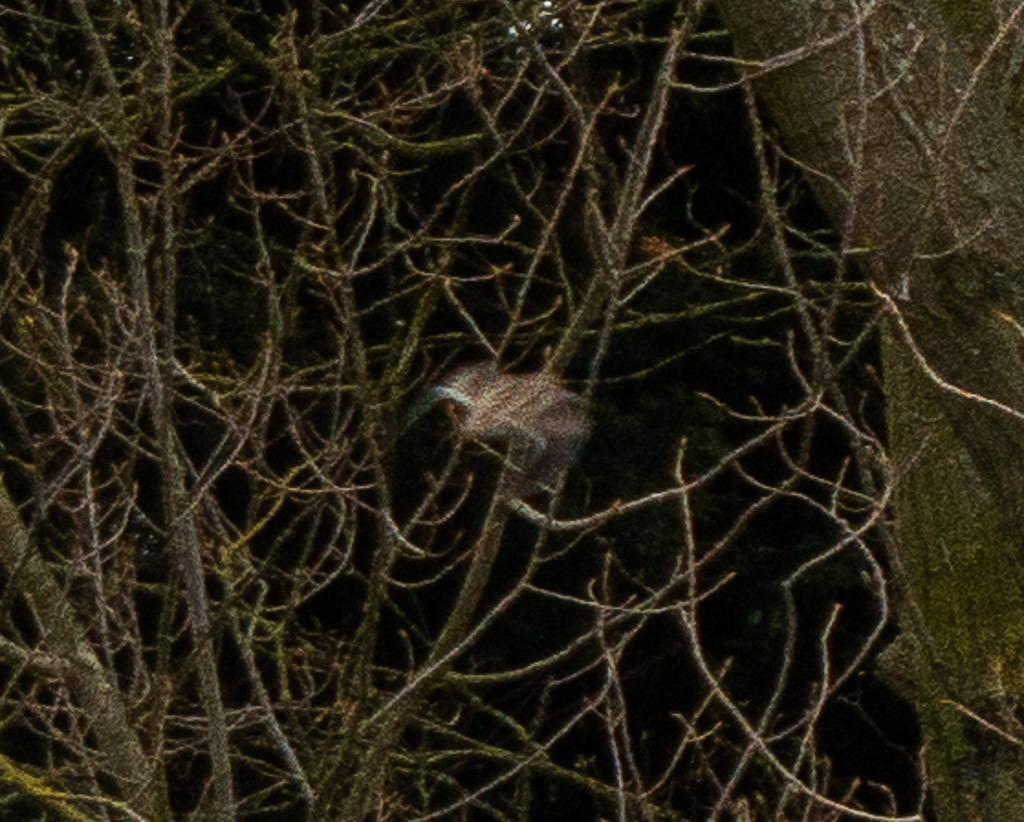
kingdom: Animalia
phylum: Chordata
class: Aves
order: Charadriiformes
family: Scolopacidae
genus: Gallinago
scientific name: Gallinago gallinago
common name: Common snipe
